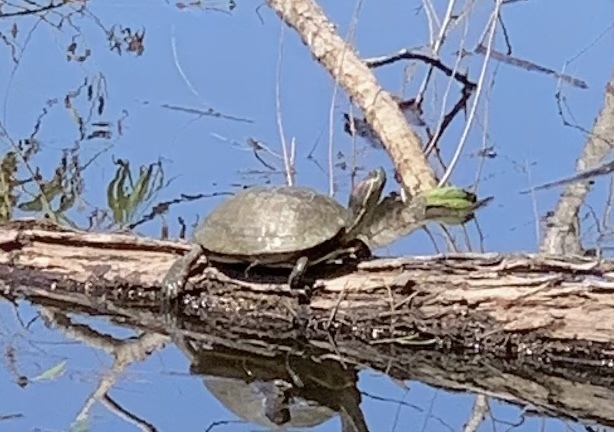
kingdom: Animalia
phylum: Chordata
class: Testudines
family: Emydidae
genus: Trachemys
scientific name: Trachemys scripta
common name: Slider
